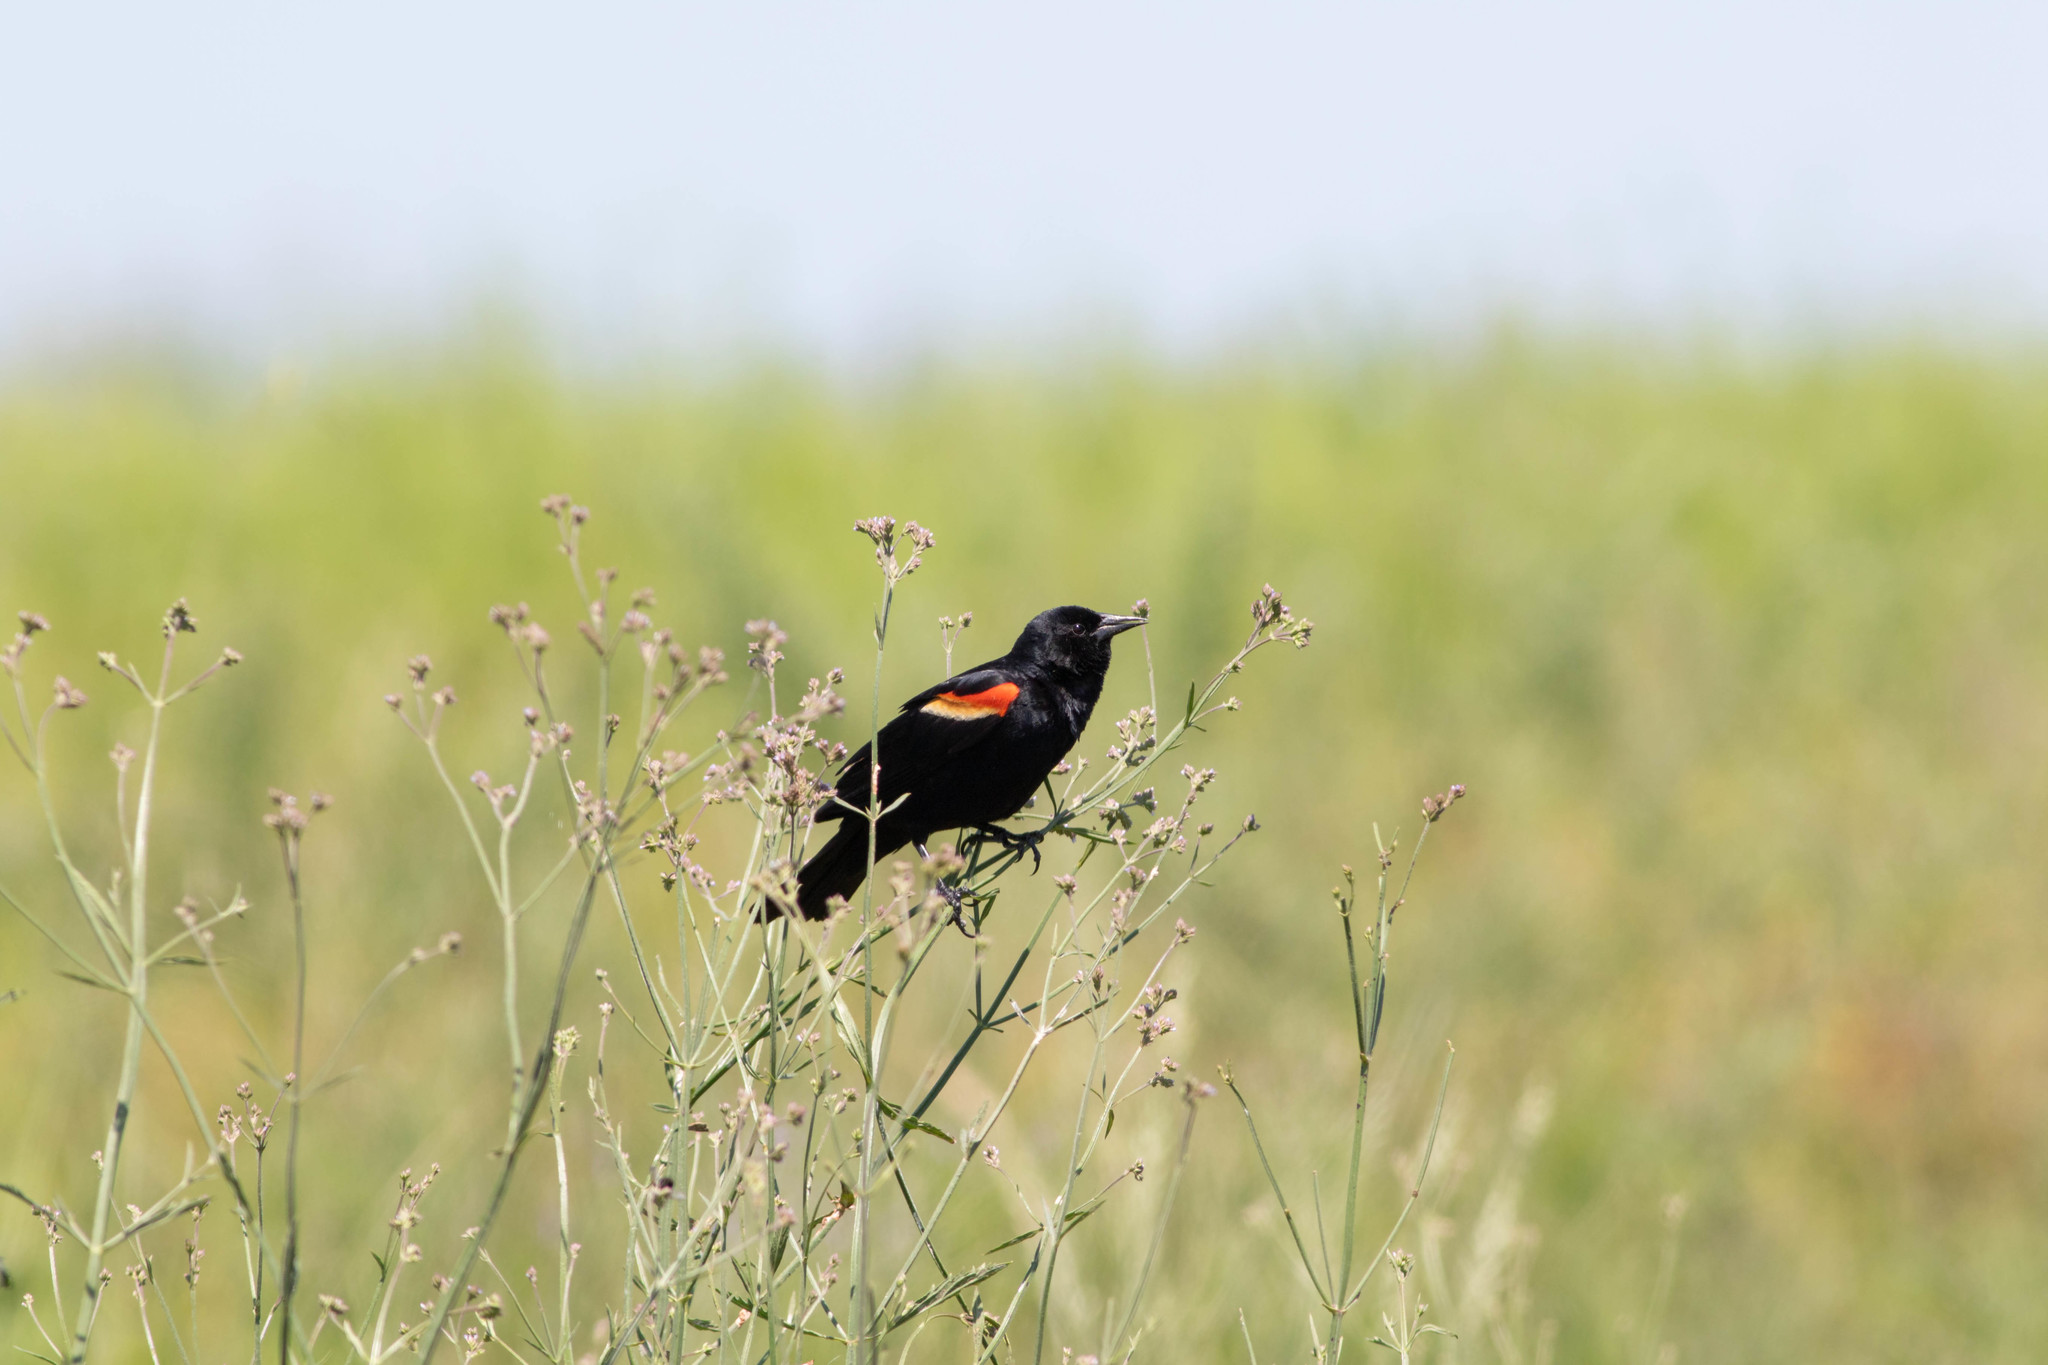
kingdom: Animalia
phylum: Chordata
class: Aves
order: Passeriformes
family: Icteridae
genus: Agelaius
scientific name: Agelaius phoeniceus
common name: Red-winged blackbird
